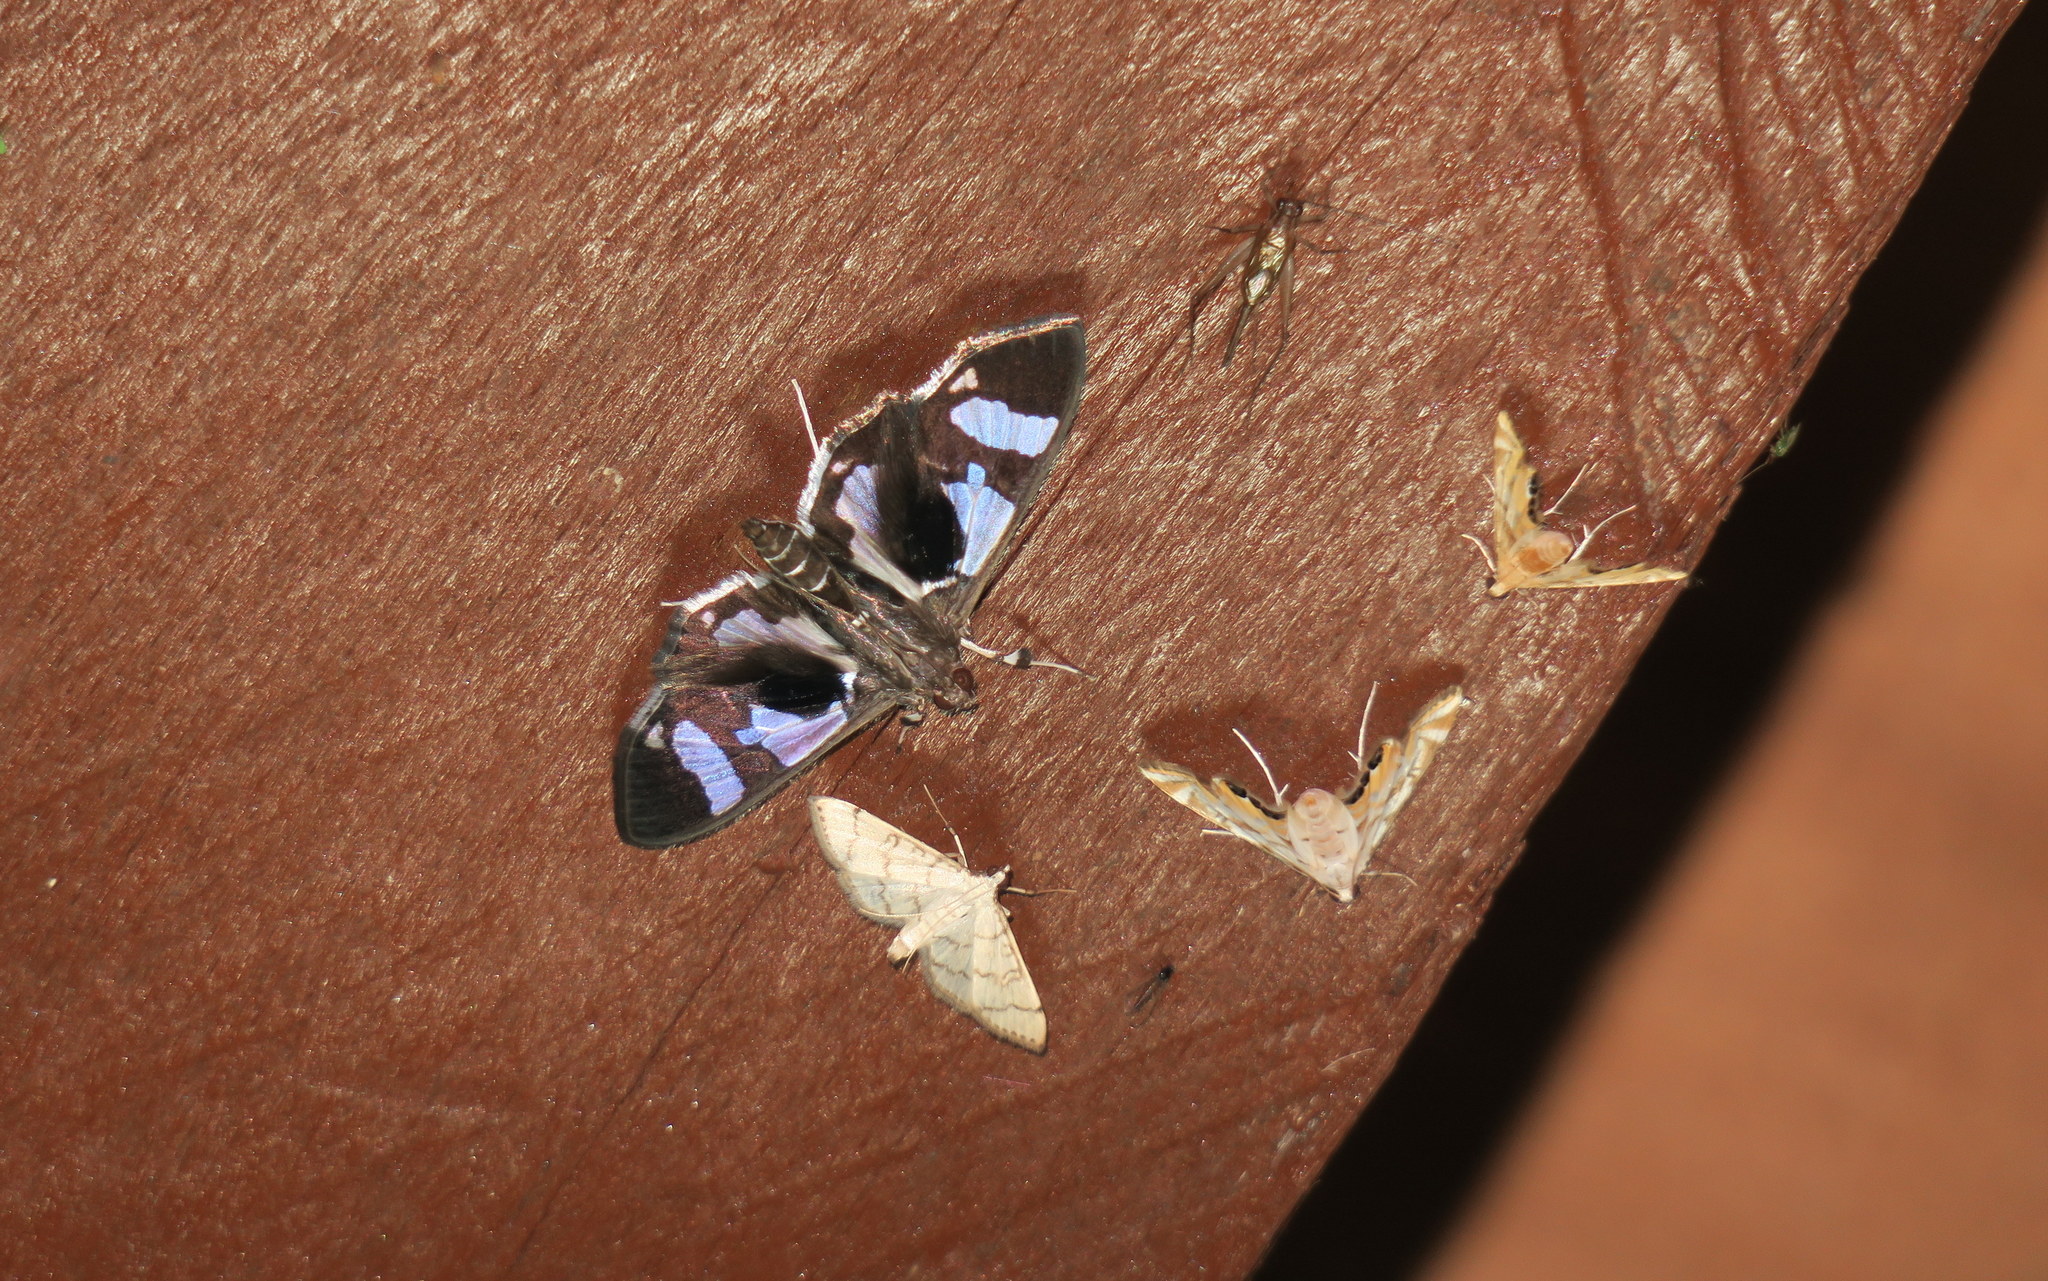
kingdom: Animalia
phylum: Arthropoda
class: Insecta
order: Lepidoptera
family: Crambidae
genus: Desmia
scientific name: Desmia bajulalis
